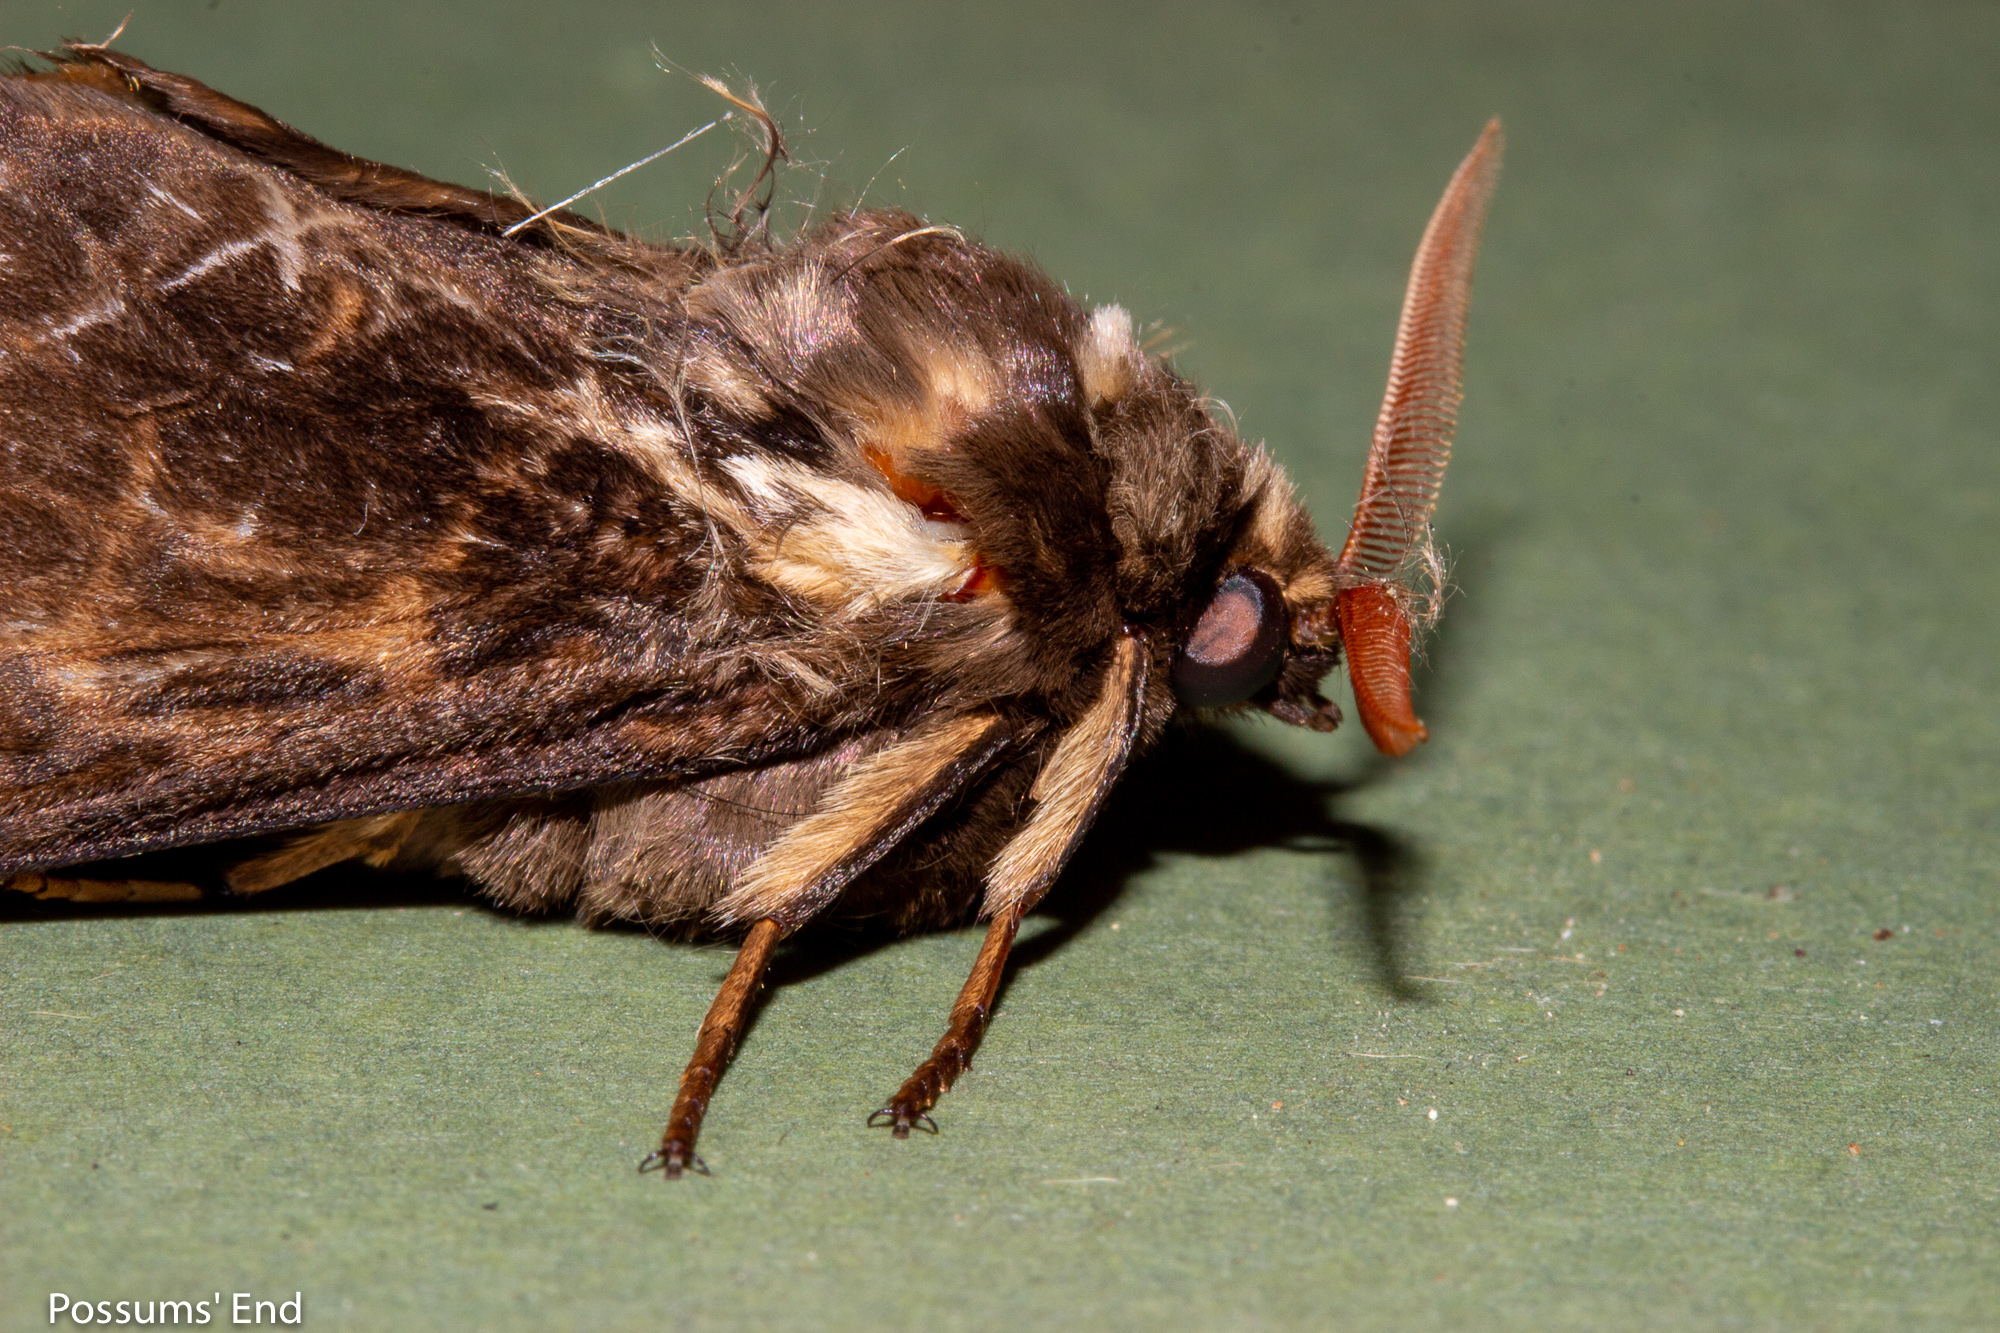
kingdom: Animalia
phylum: Arthropoda
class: Insecta
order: Lepidoptera
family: Hepialidae
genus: Aoraia
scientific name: Aoraia rufivena
